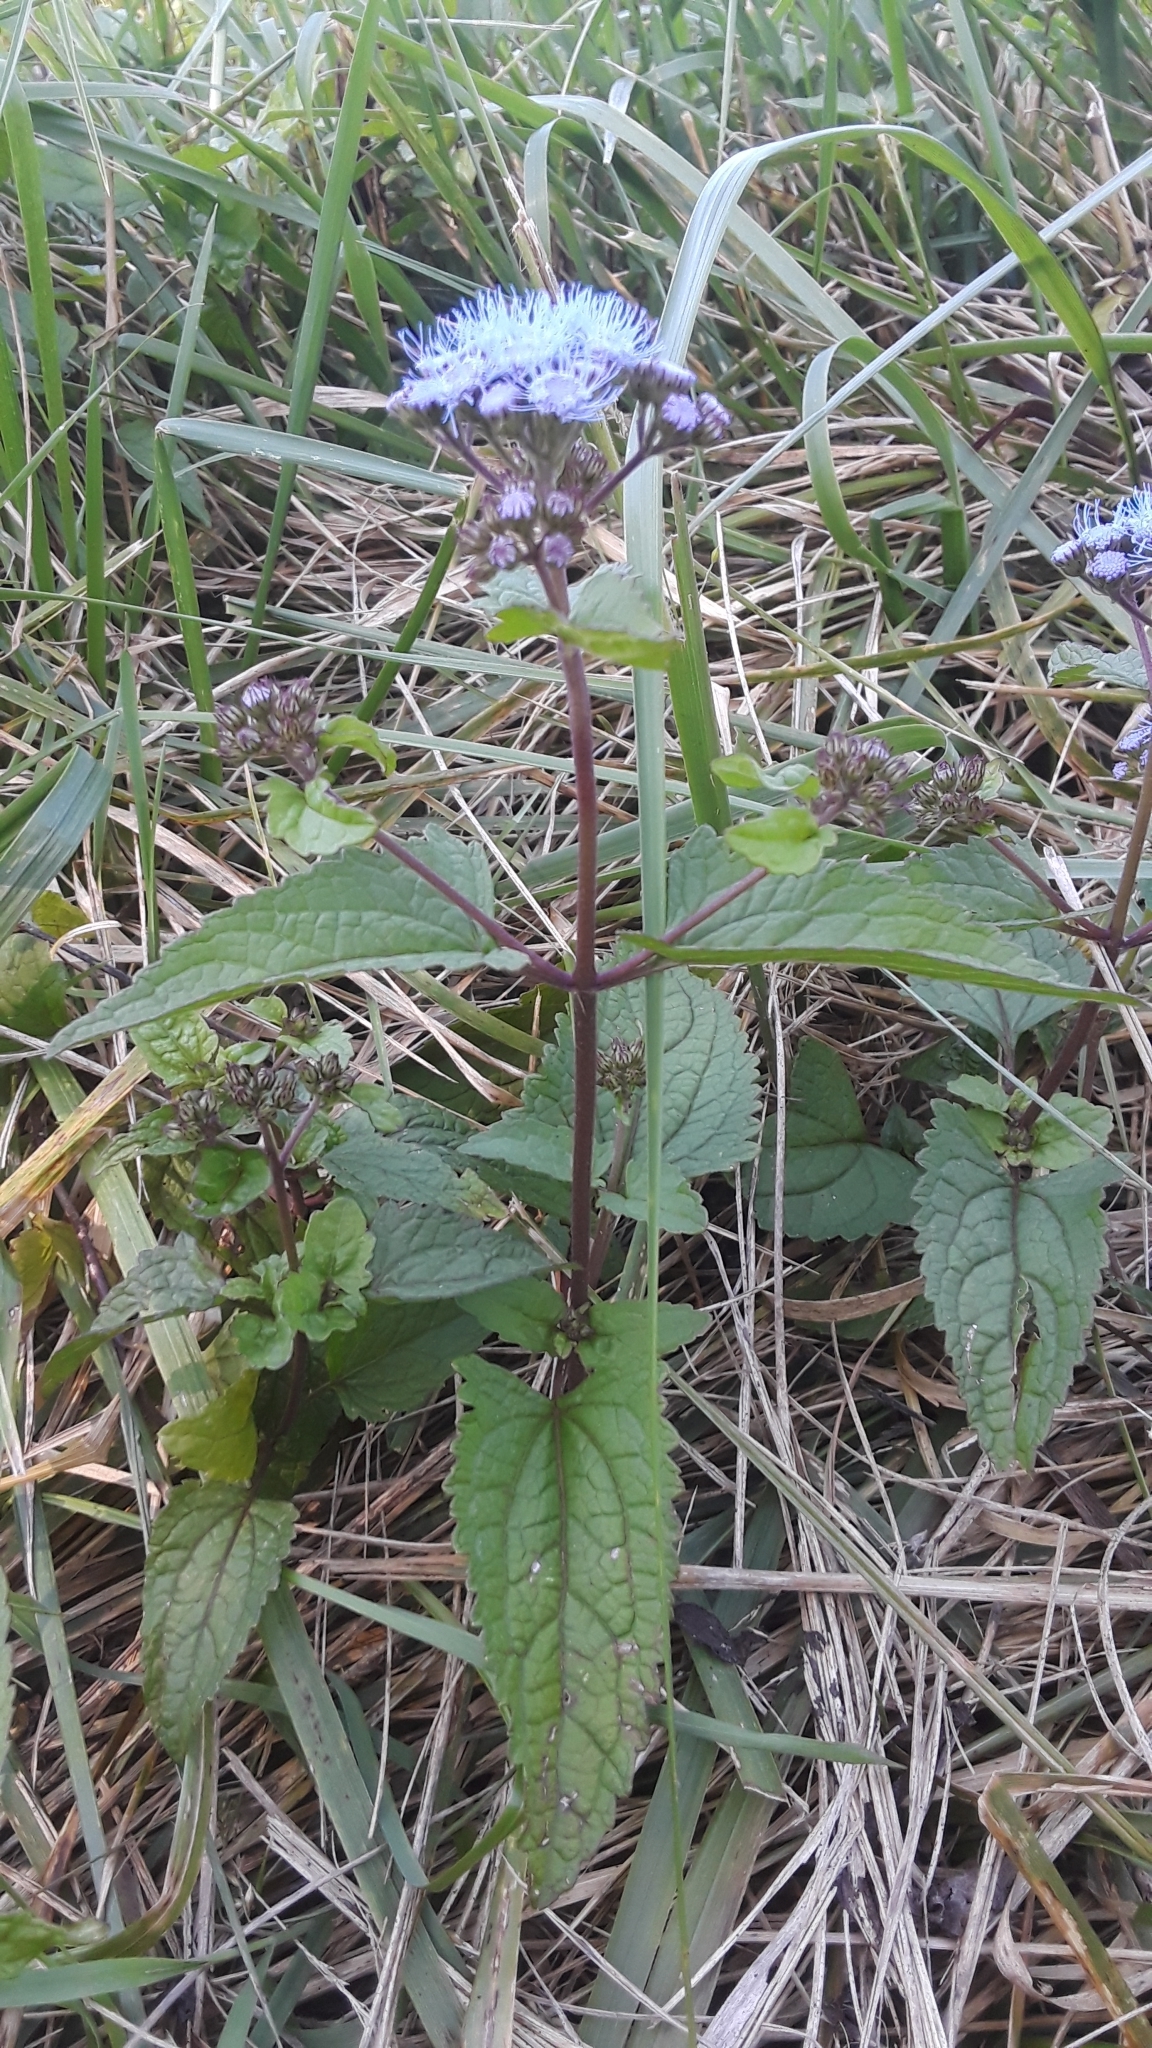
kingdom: Plantae
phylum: Tracheophyta
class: Magnoliopsida
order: Asterales
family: Asteraceae
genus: Conoclinium
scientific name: Conoclinium coelestinum
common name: Blue mistflower
